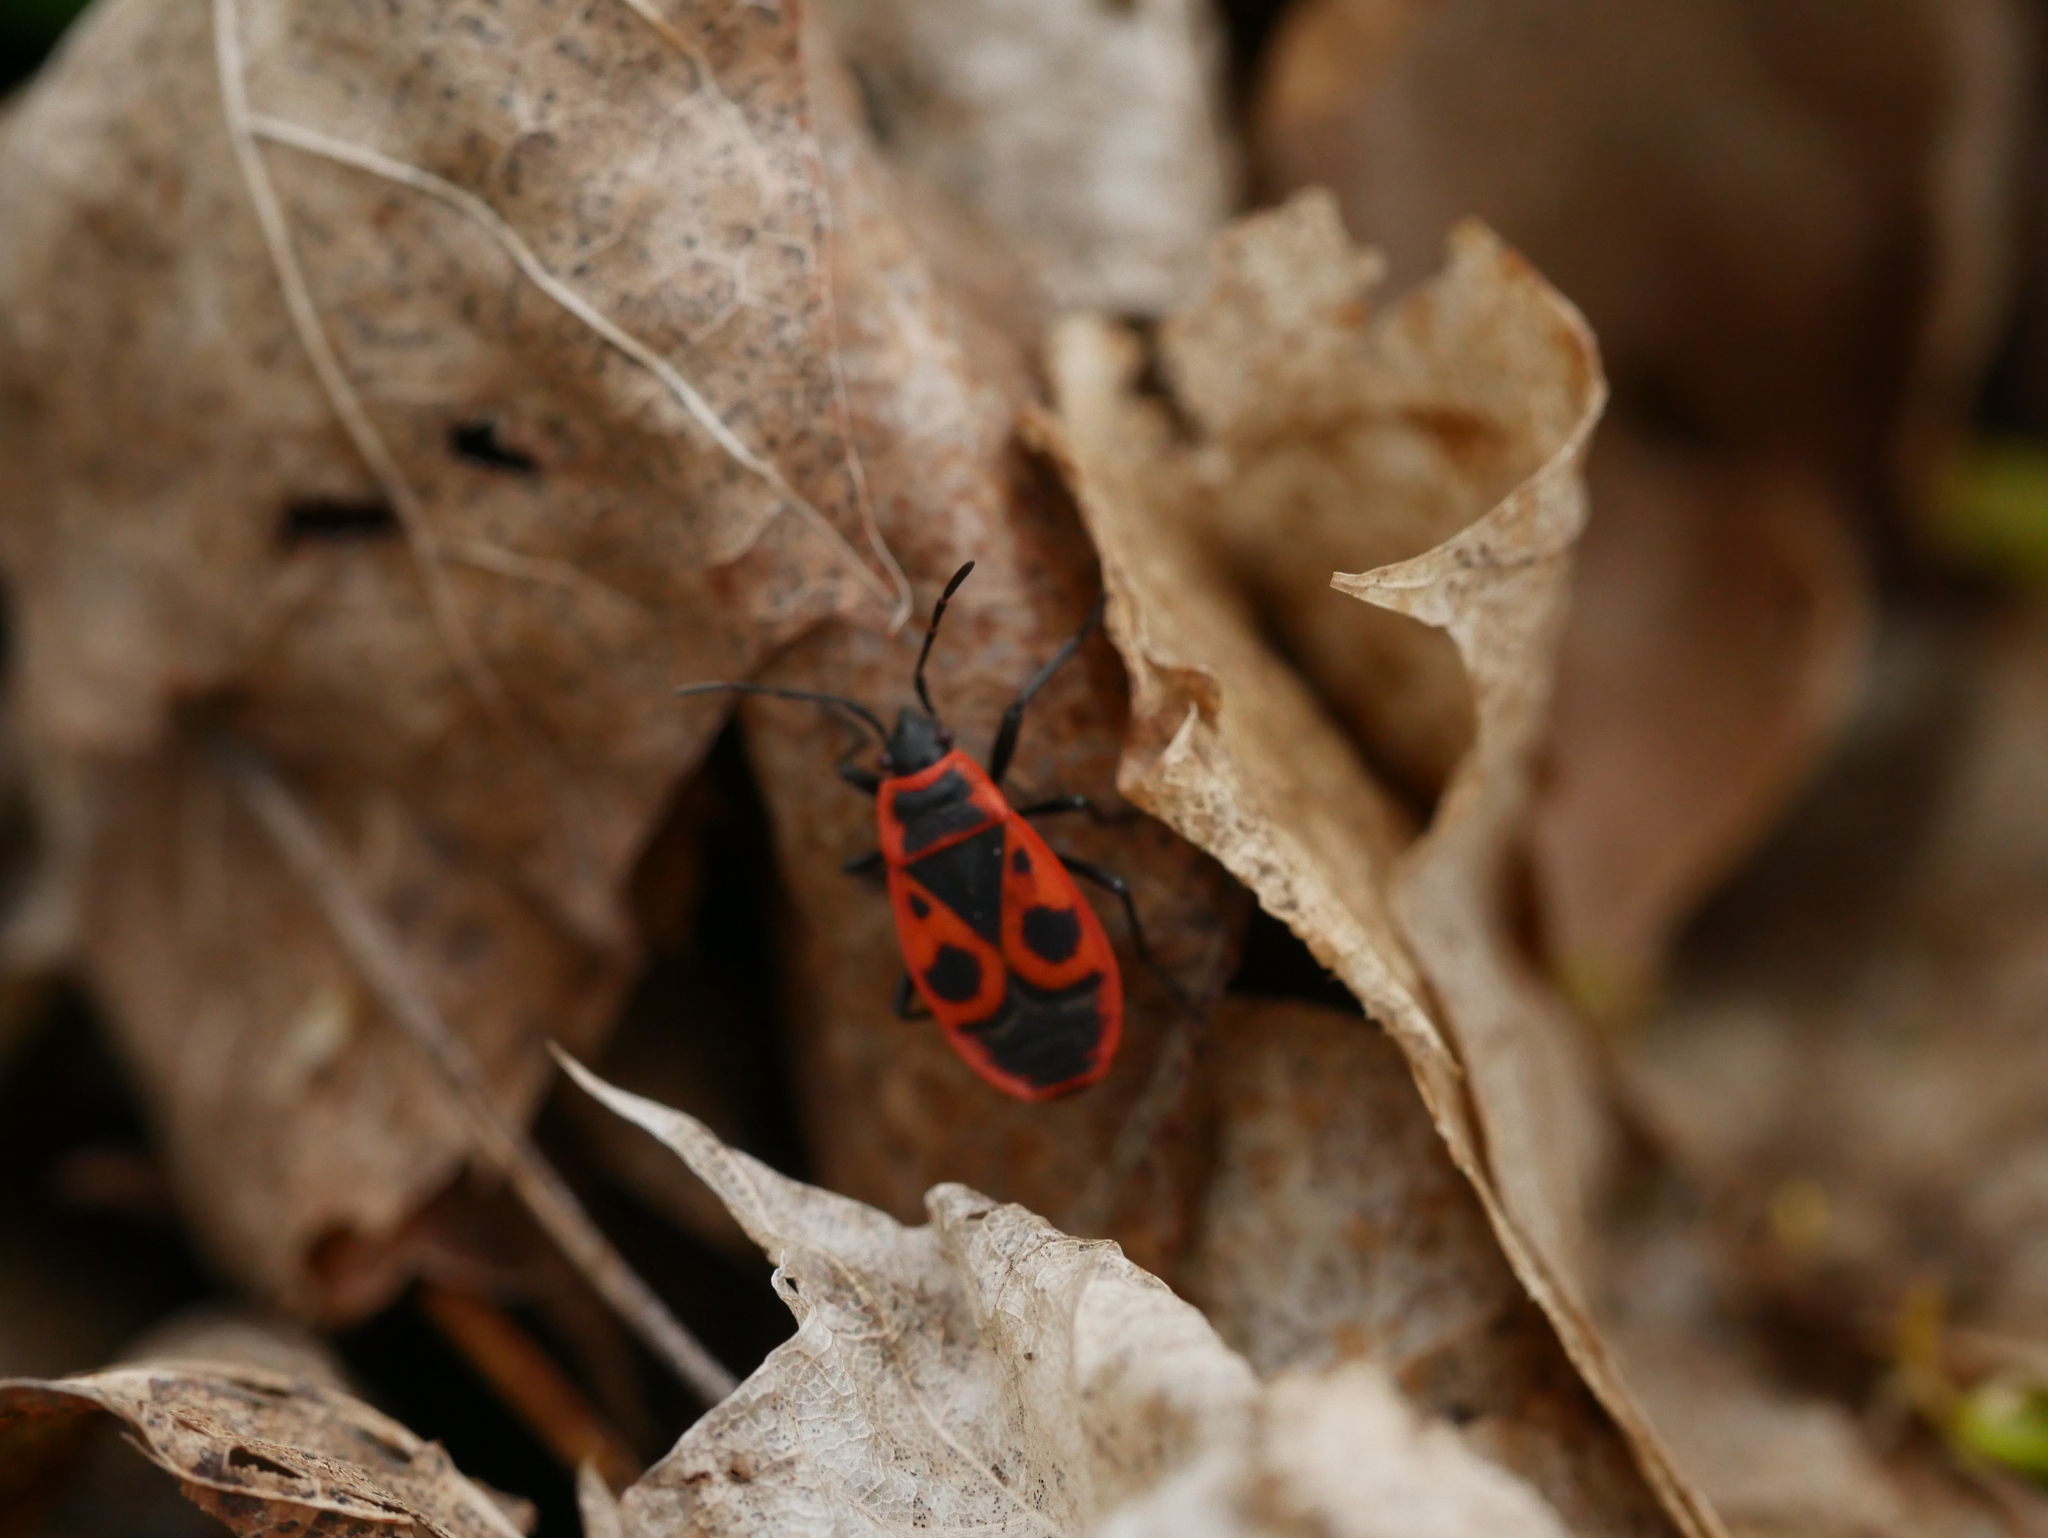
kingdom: Animalia
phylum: Arthropoda
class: Insecta
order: Hemiptera
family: Pyrrhocoridae
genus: Pyrrhocoris
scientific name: Pyrrhocoris apterus
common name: Firebug
